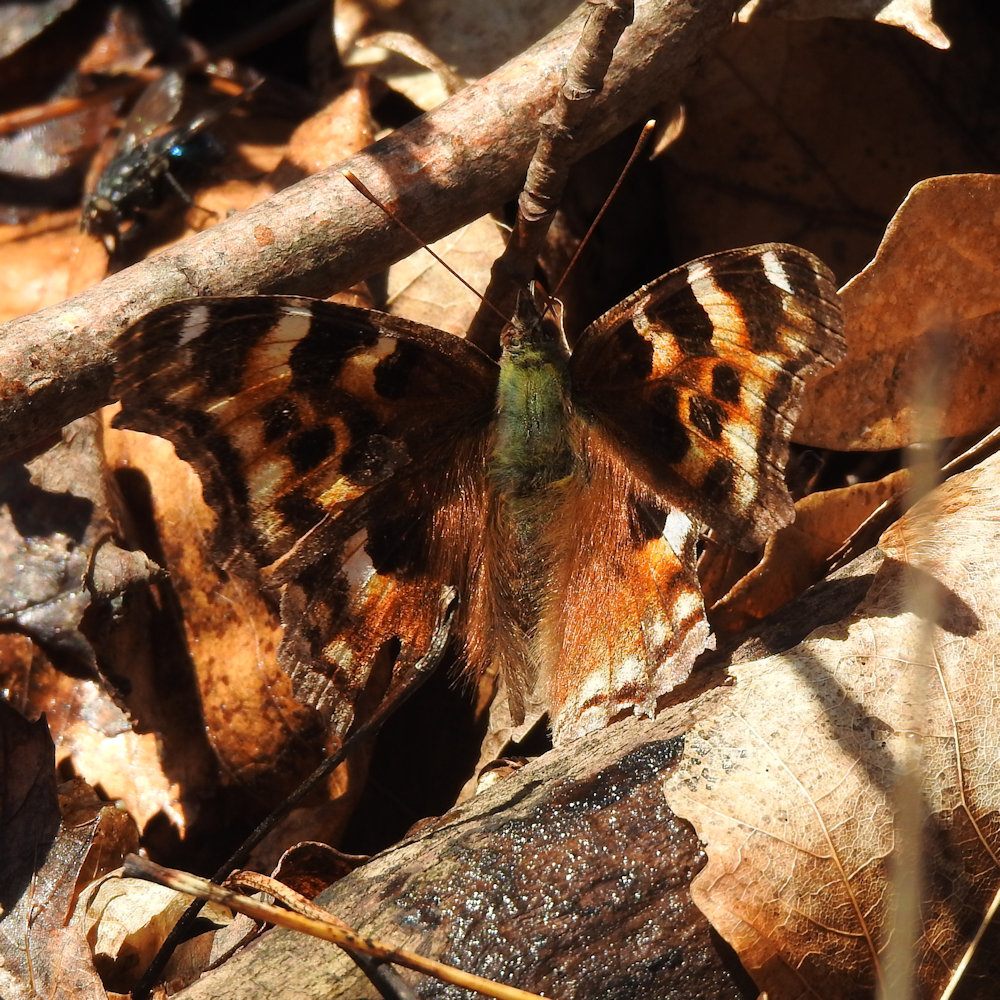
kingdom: Animalia
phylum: Arthropoda
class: Insecta
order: Lepidoptera
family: Nymphalidae
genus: Polygonia
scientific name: Polygonia vaualbum
